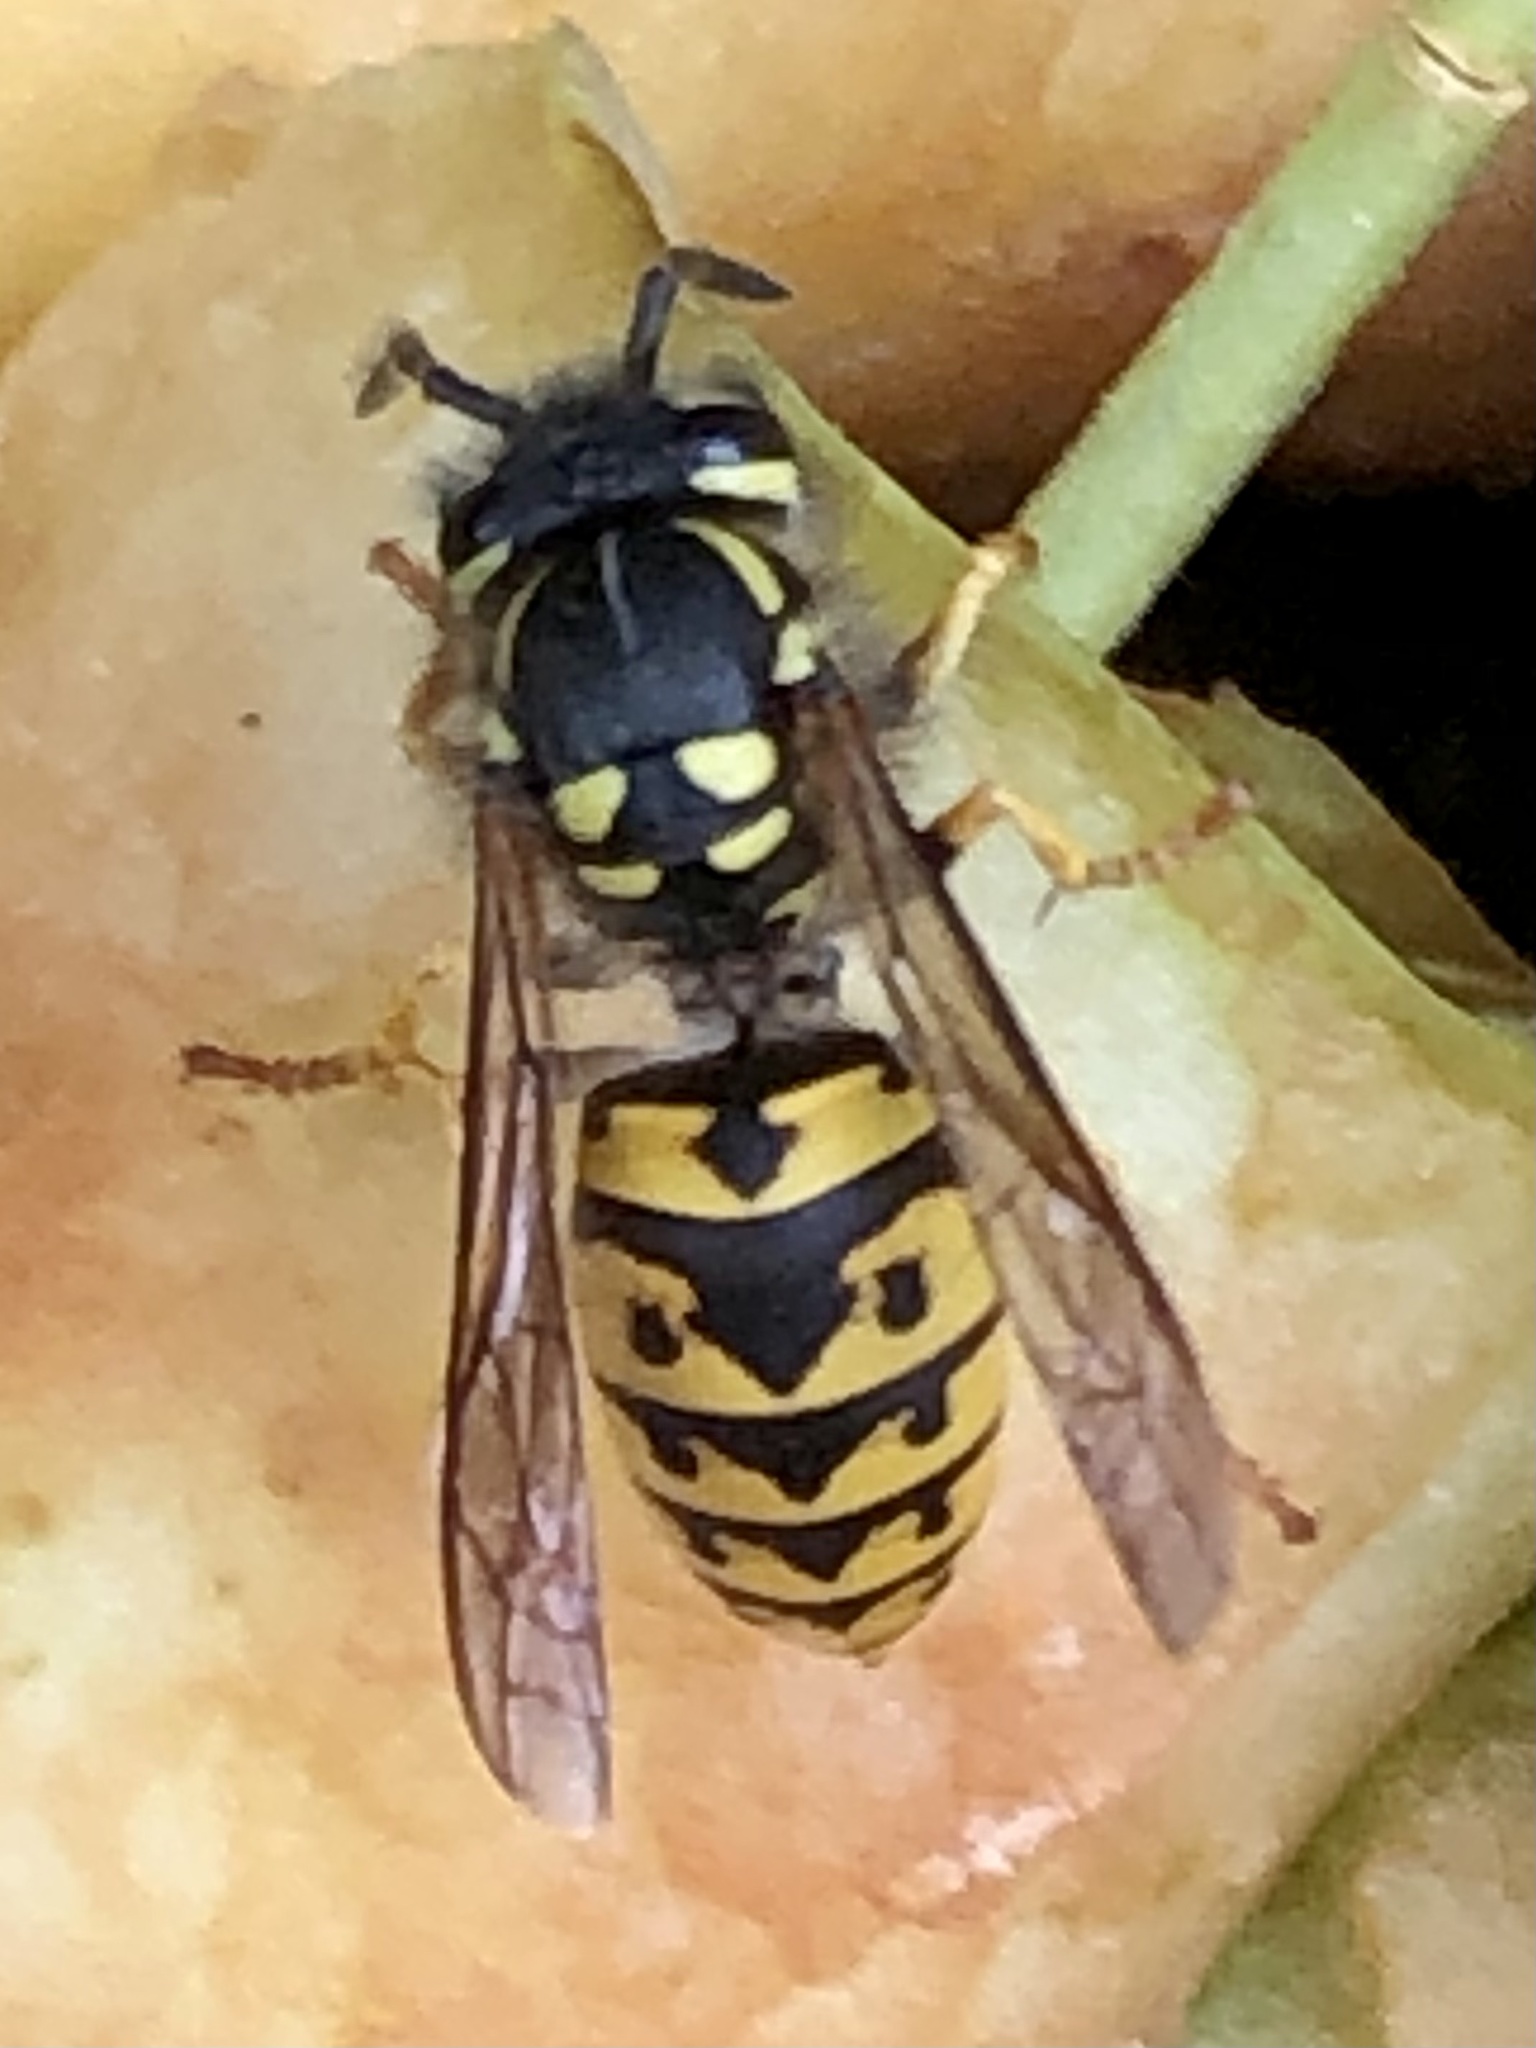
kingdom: Animalia
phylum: Arthropoda
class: Insecta
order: Hymenoptera
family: Vespidae
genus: Vespula
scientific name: Vespula germanica
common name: German wasp
